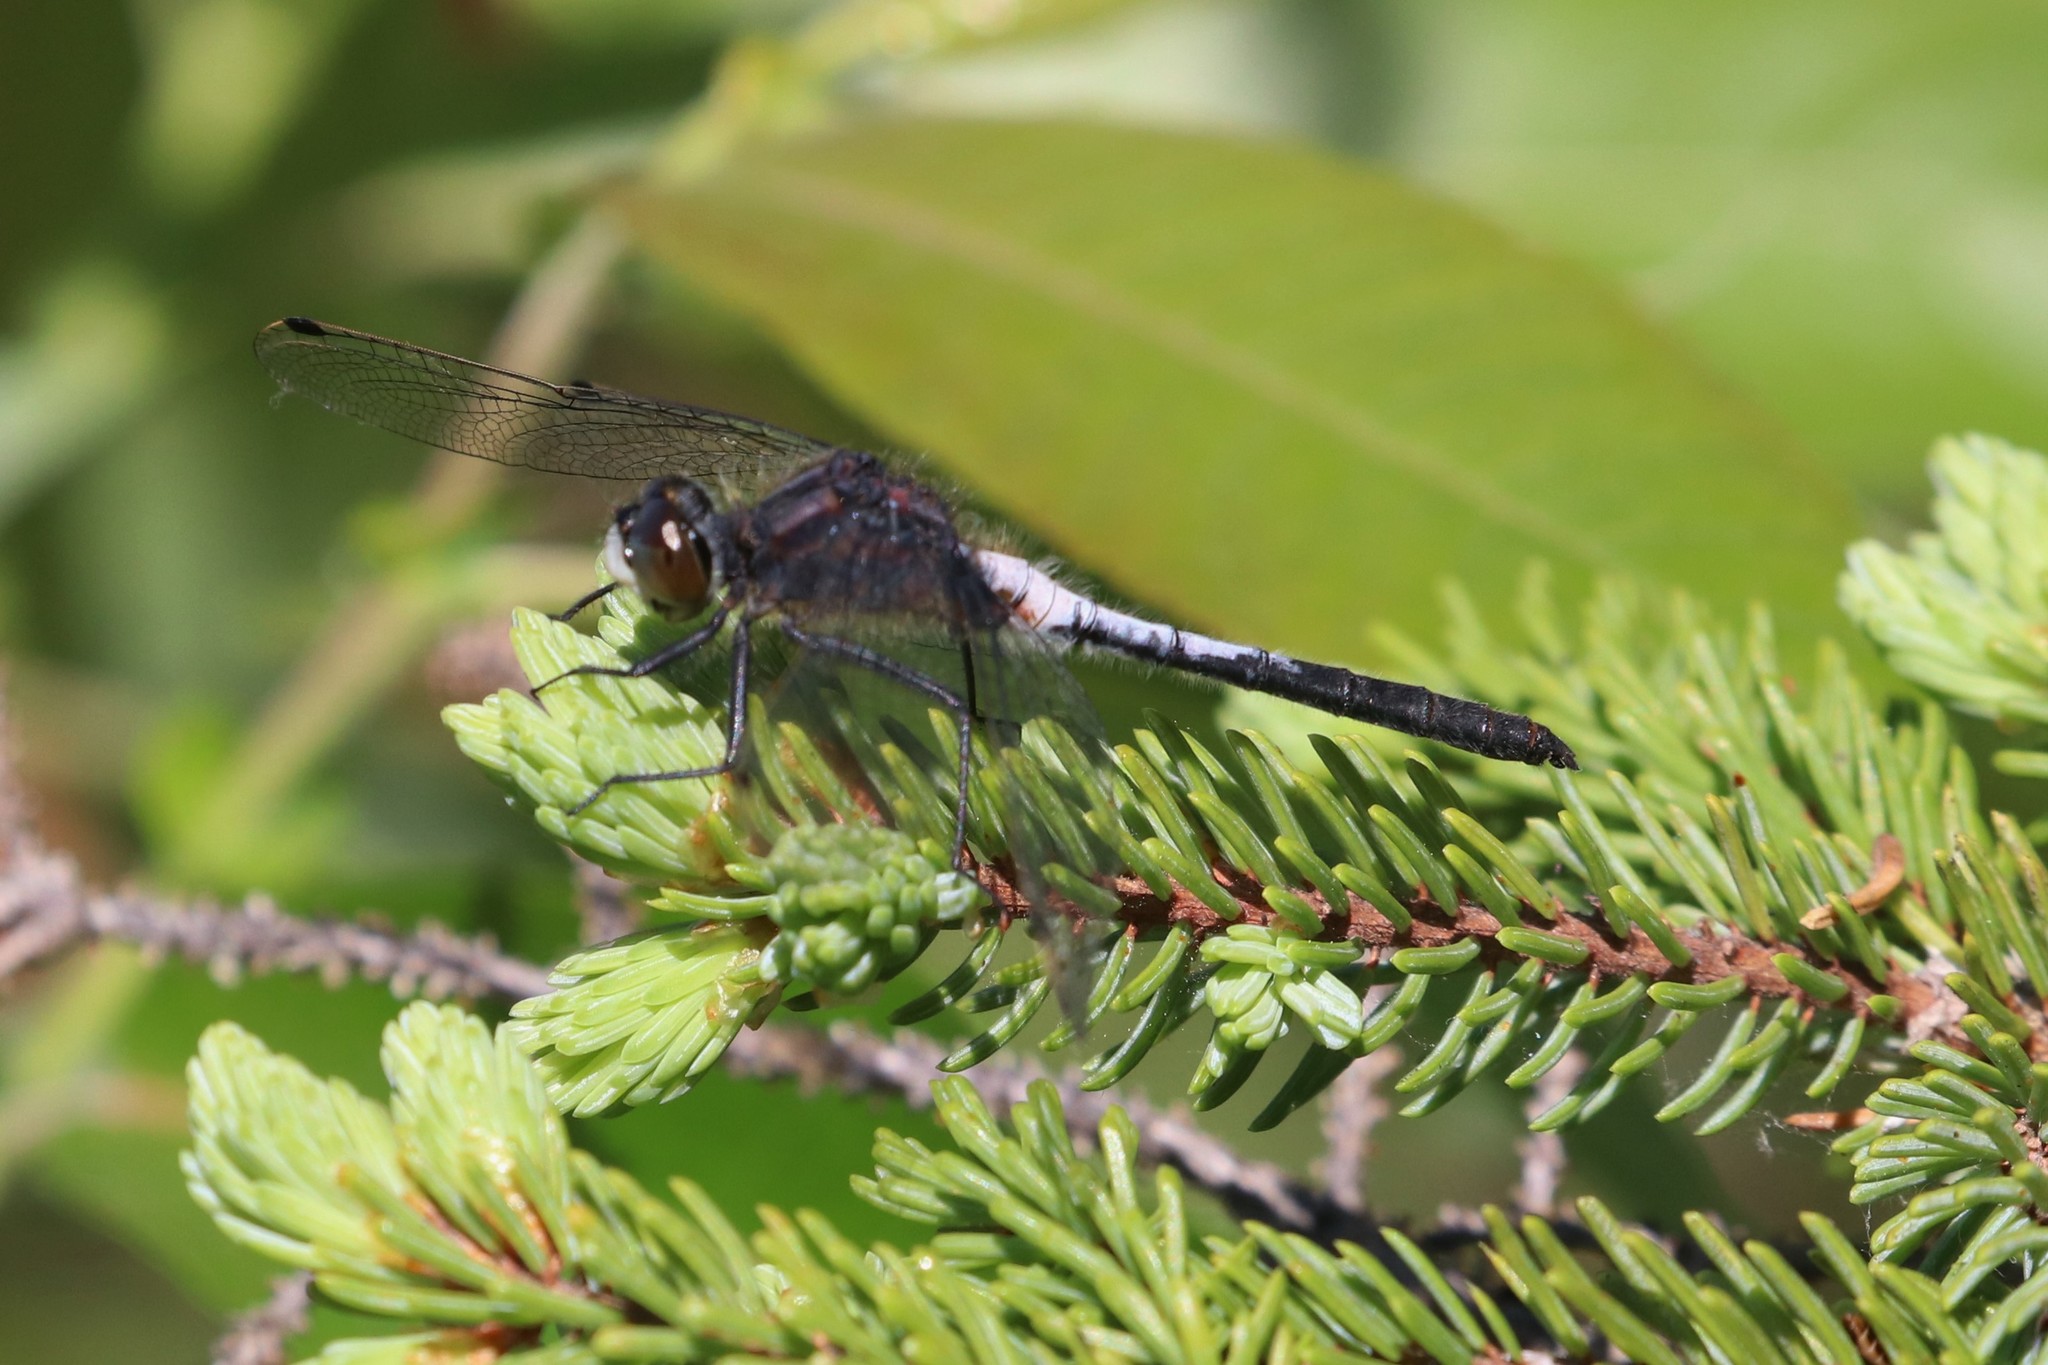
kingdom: Animalia
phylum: Arthropoda
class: Insecta
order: Odonata
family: Libellulidae
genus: Leucorrhinia
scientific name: Leucorrhinia proxima
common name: Belted whiteface
